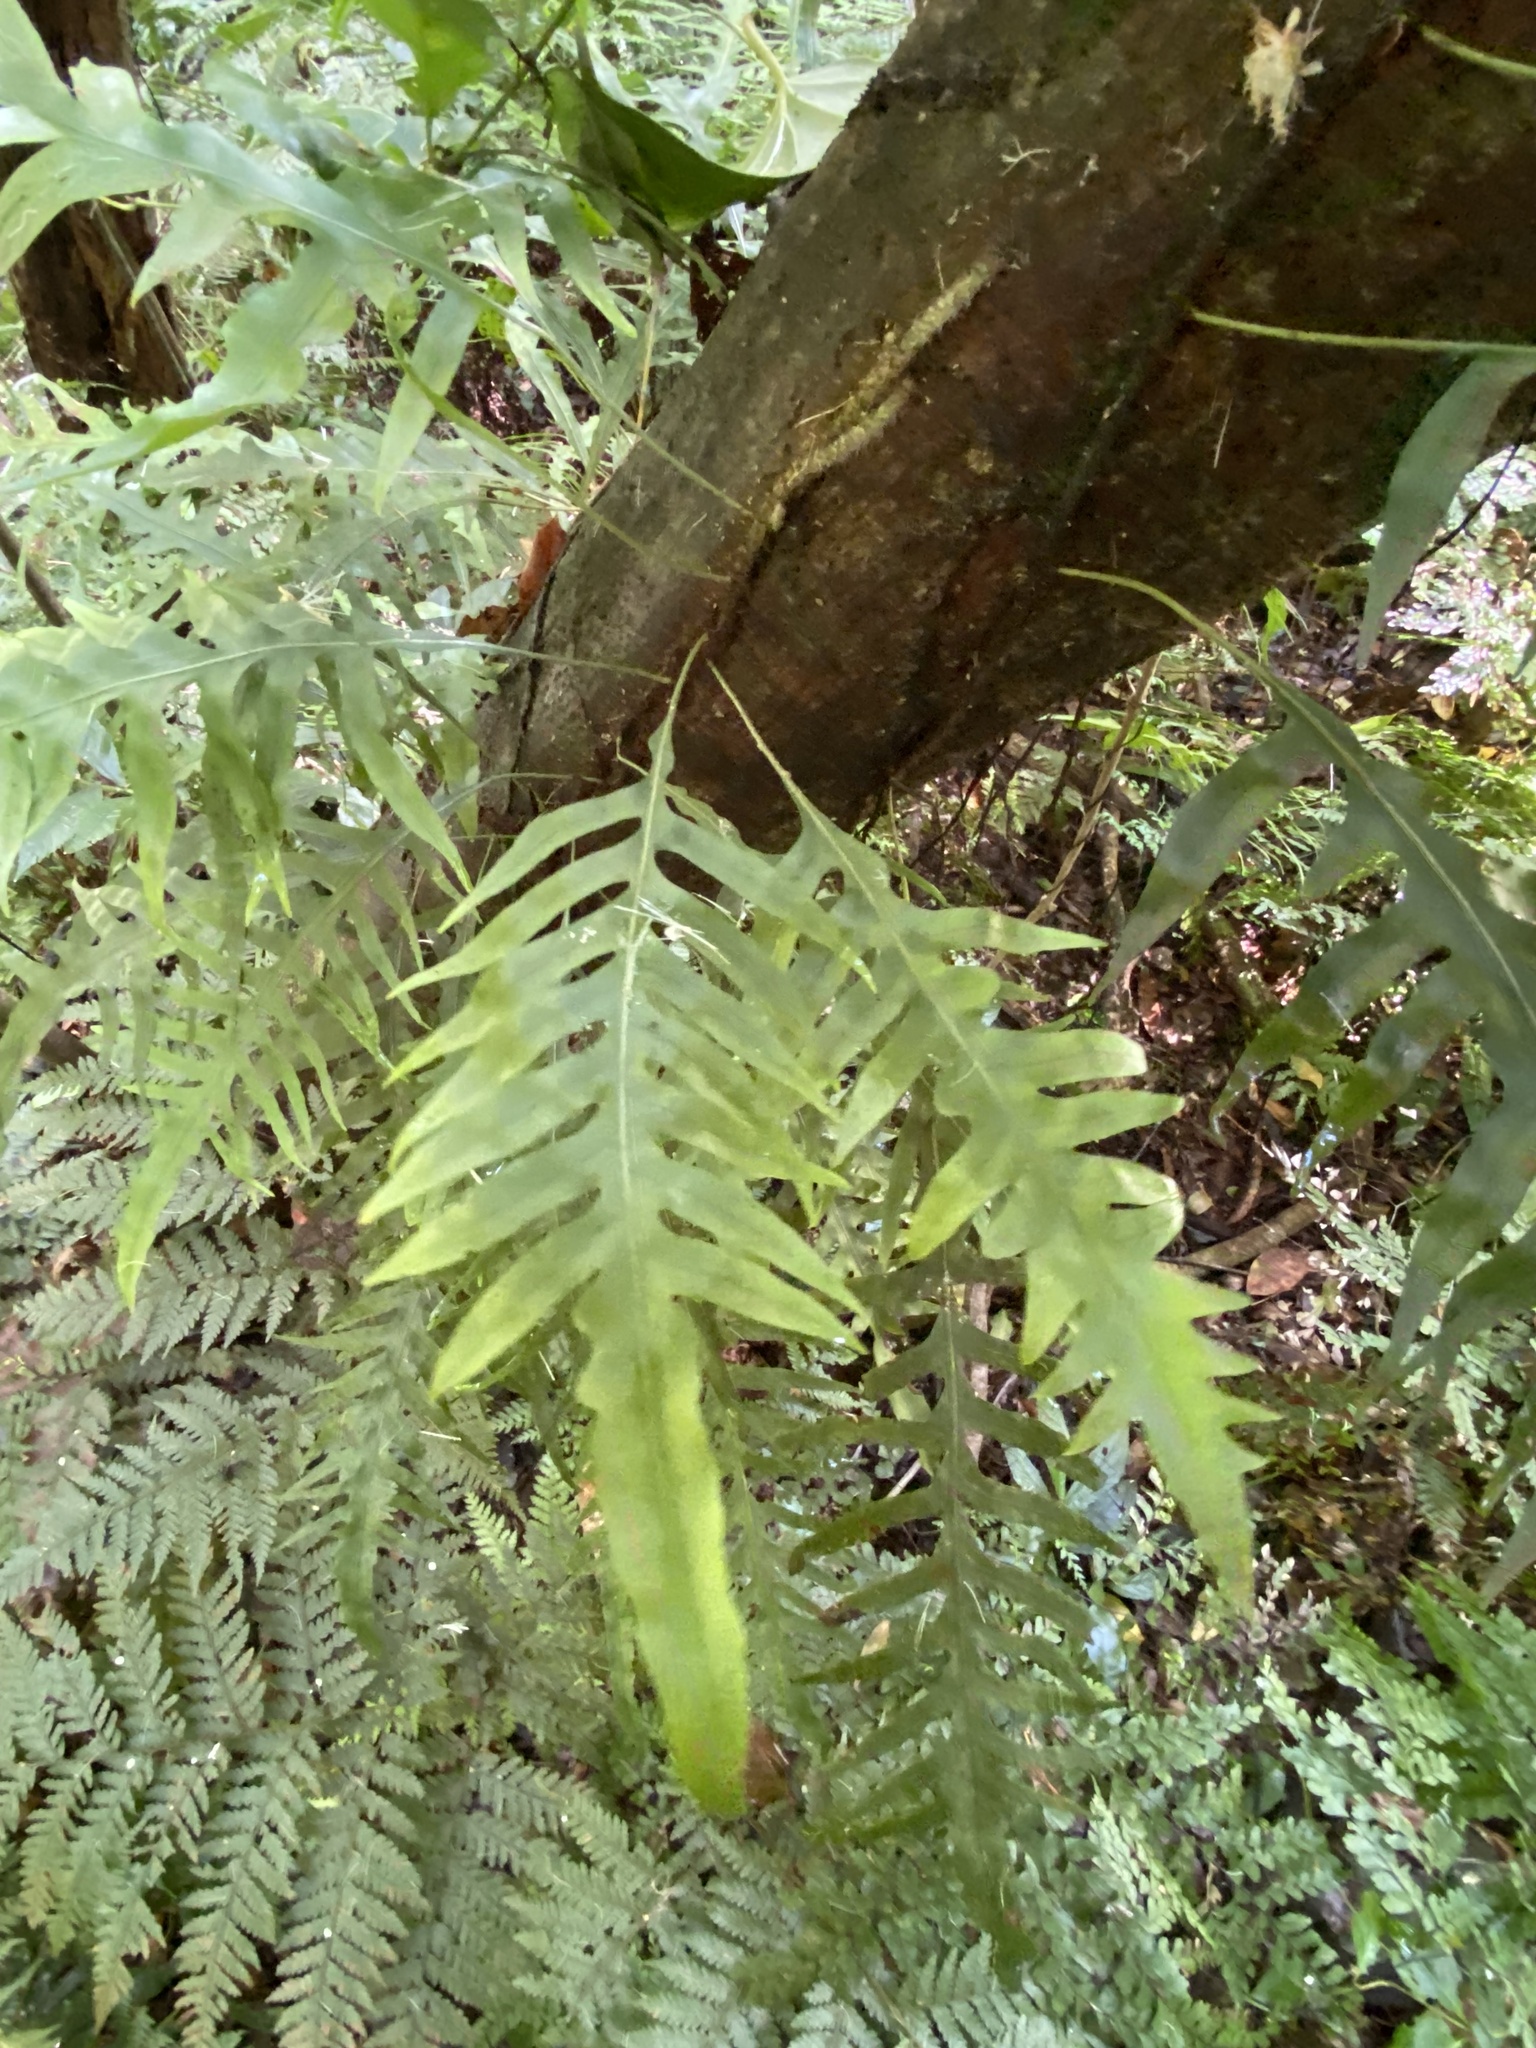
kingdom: Plantae
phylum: Tracheophyta
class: Polypodiopsida
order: Polypodiales
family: Polypodiaceae
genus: Lecanopteris
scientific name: Lecanopteris scandens
